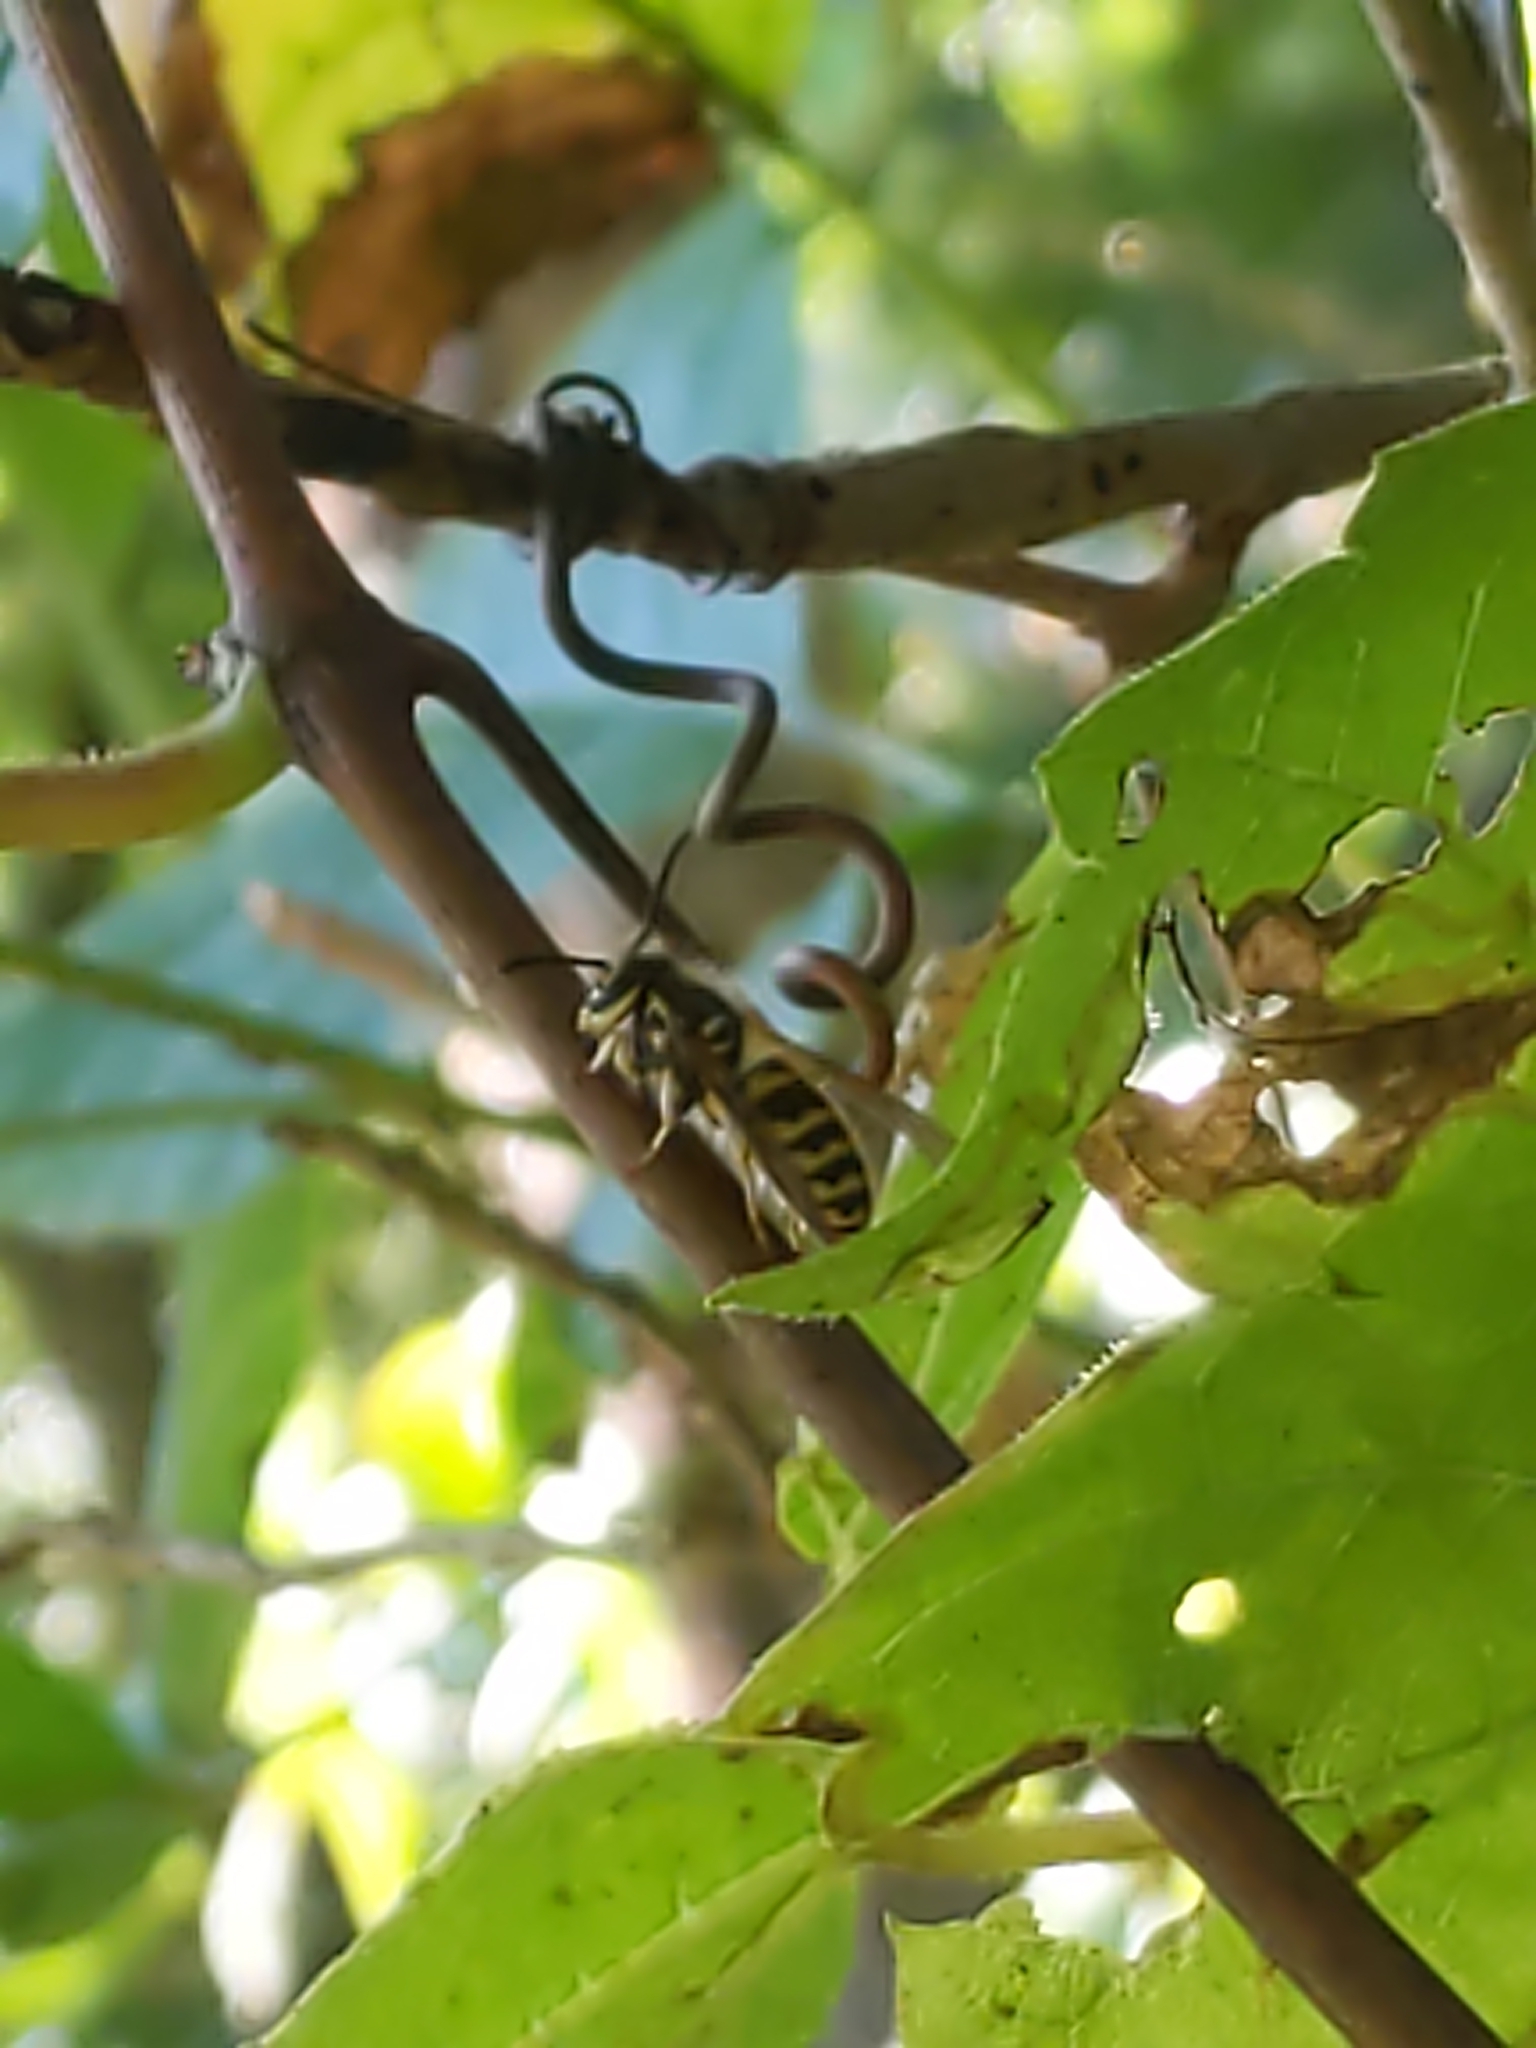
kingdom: Animalia
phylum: Arthropoda
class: Insecta
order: Hymenoptera
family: Vespidae
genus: Vespula
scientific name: Vespula
